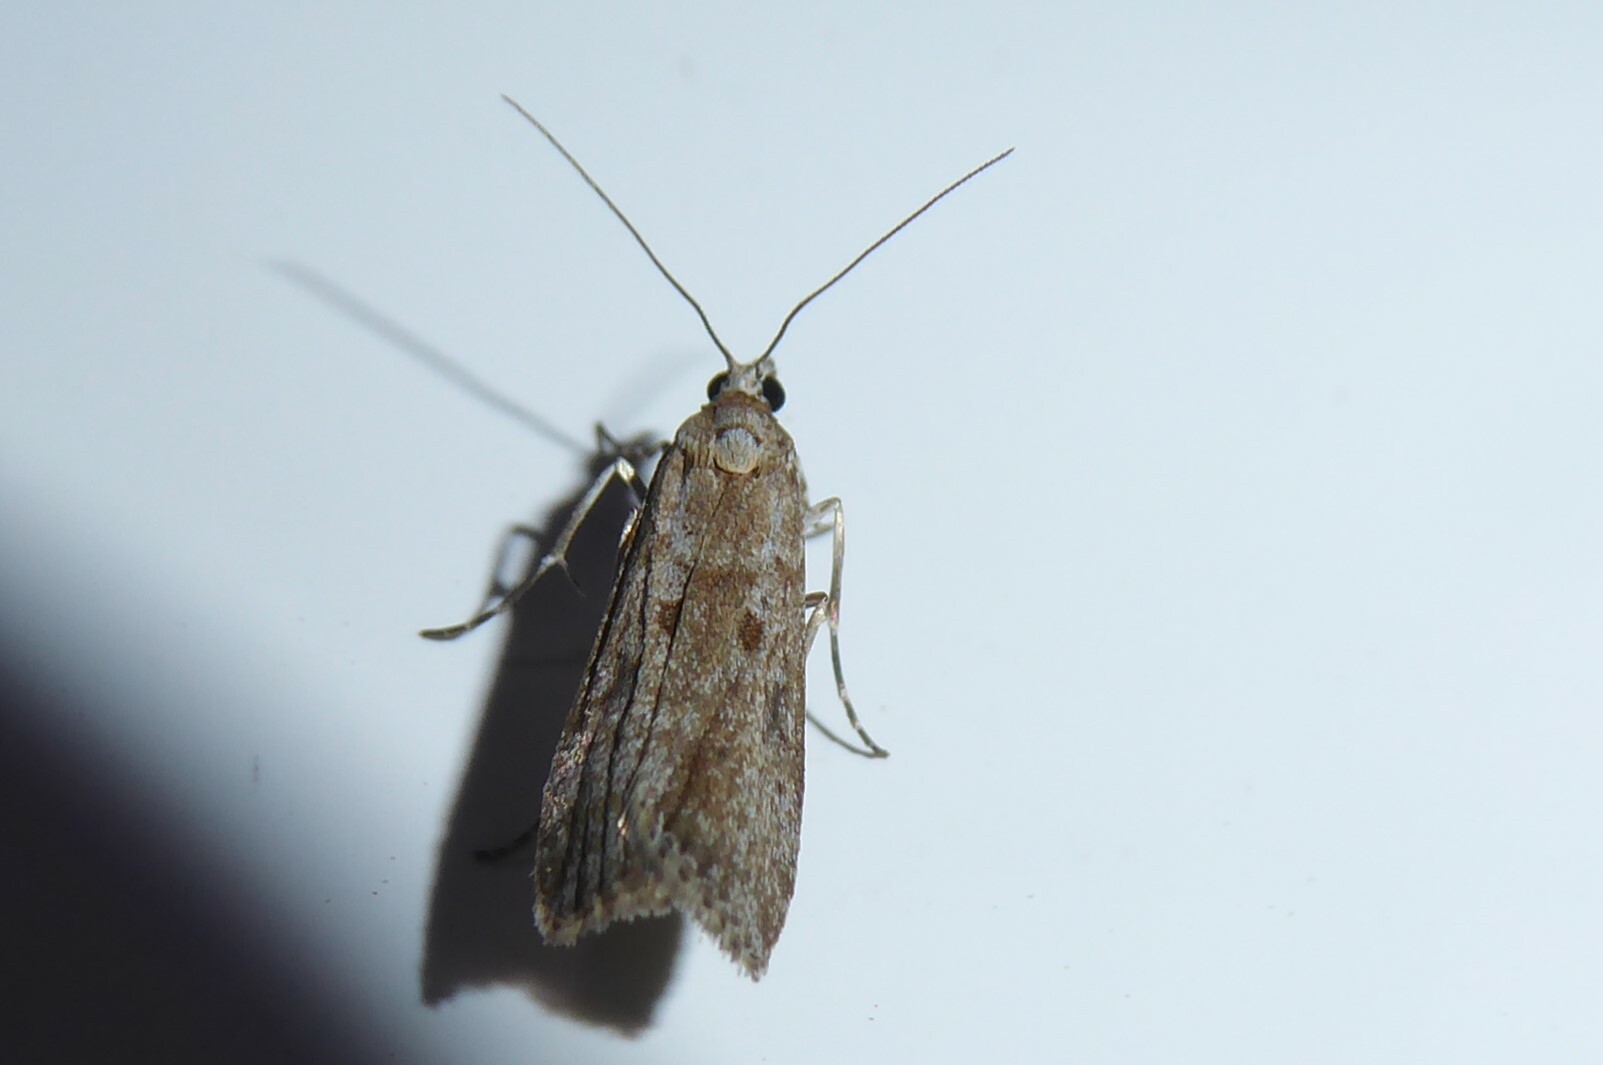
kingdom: Animalia
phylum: Arthropoda
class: Insecta
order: Lepidoptera
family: Crambidae
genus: Eudonia
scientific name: Eudonia leptalea
